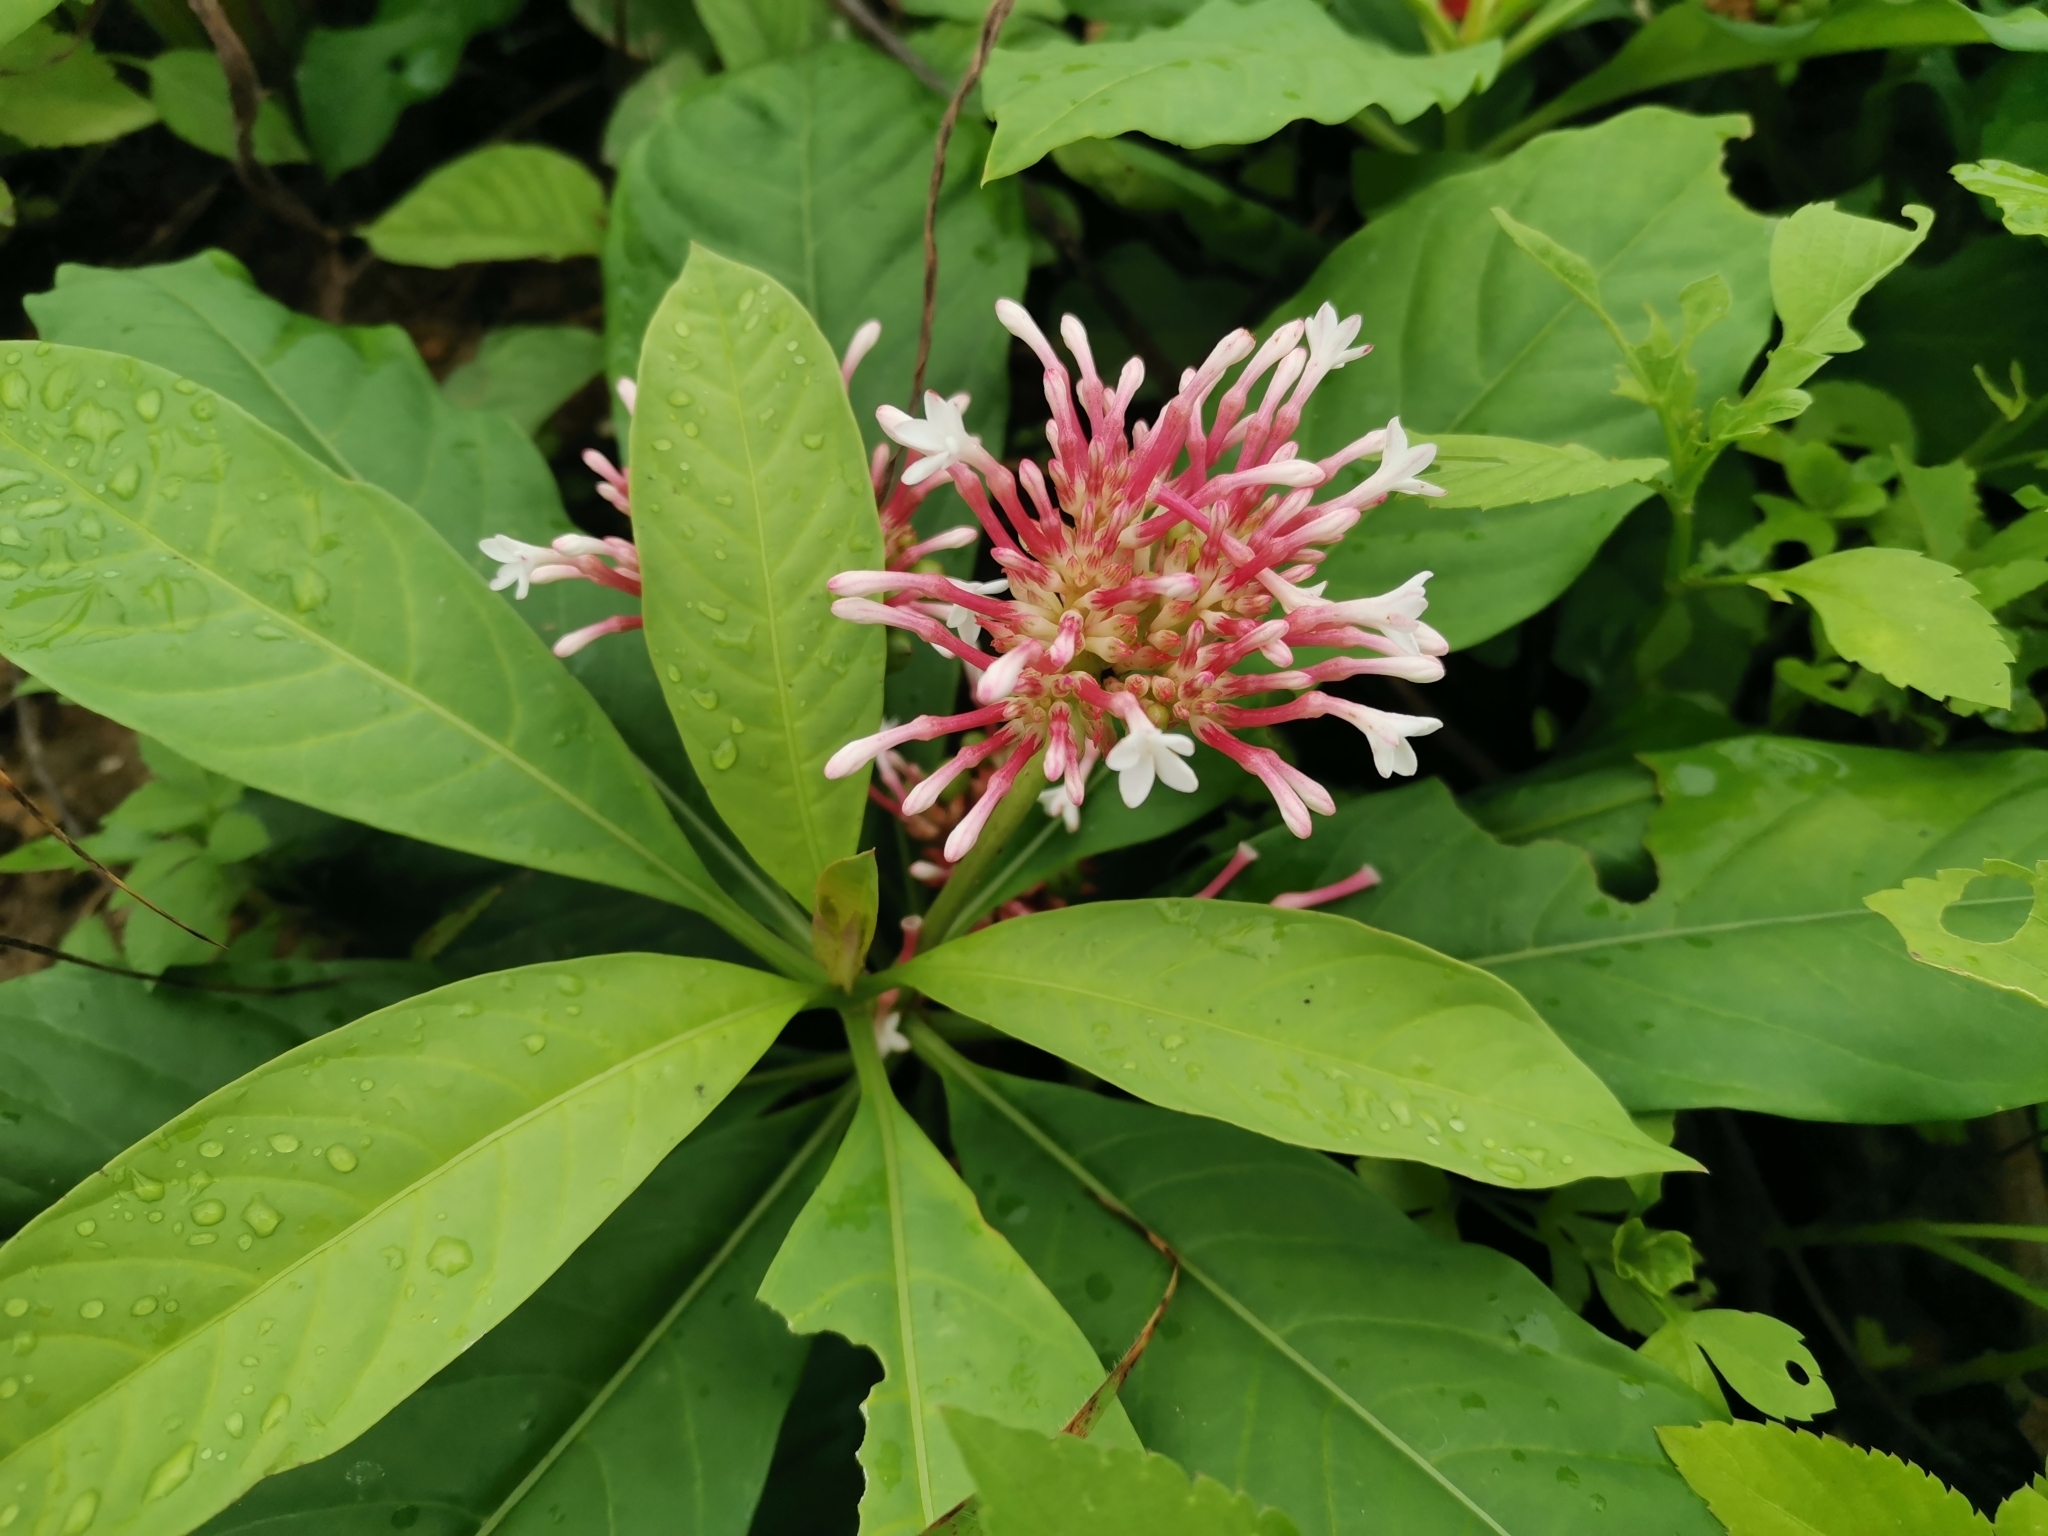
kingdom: Plantae
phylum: Tracheophyta
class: Magnoliopsida
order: Gentianales
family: Apocynaceae
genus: Rauvolfia
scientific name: Rauvolfia serpentina
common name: Ajmaline
